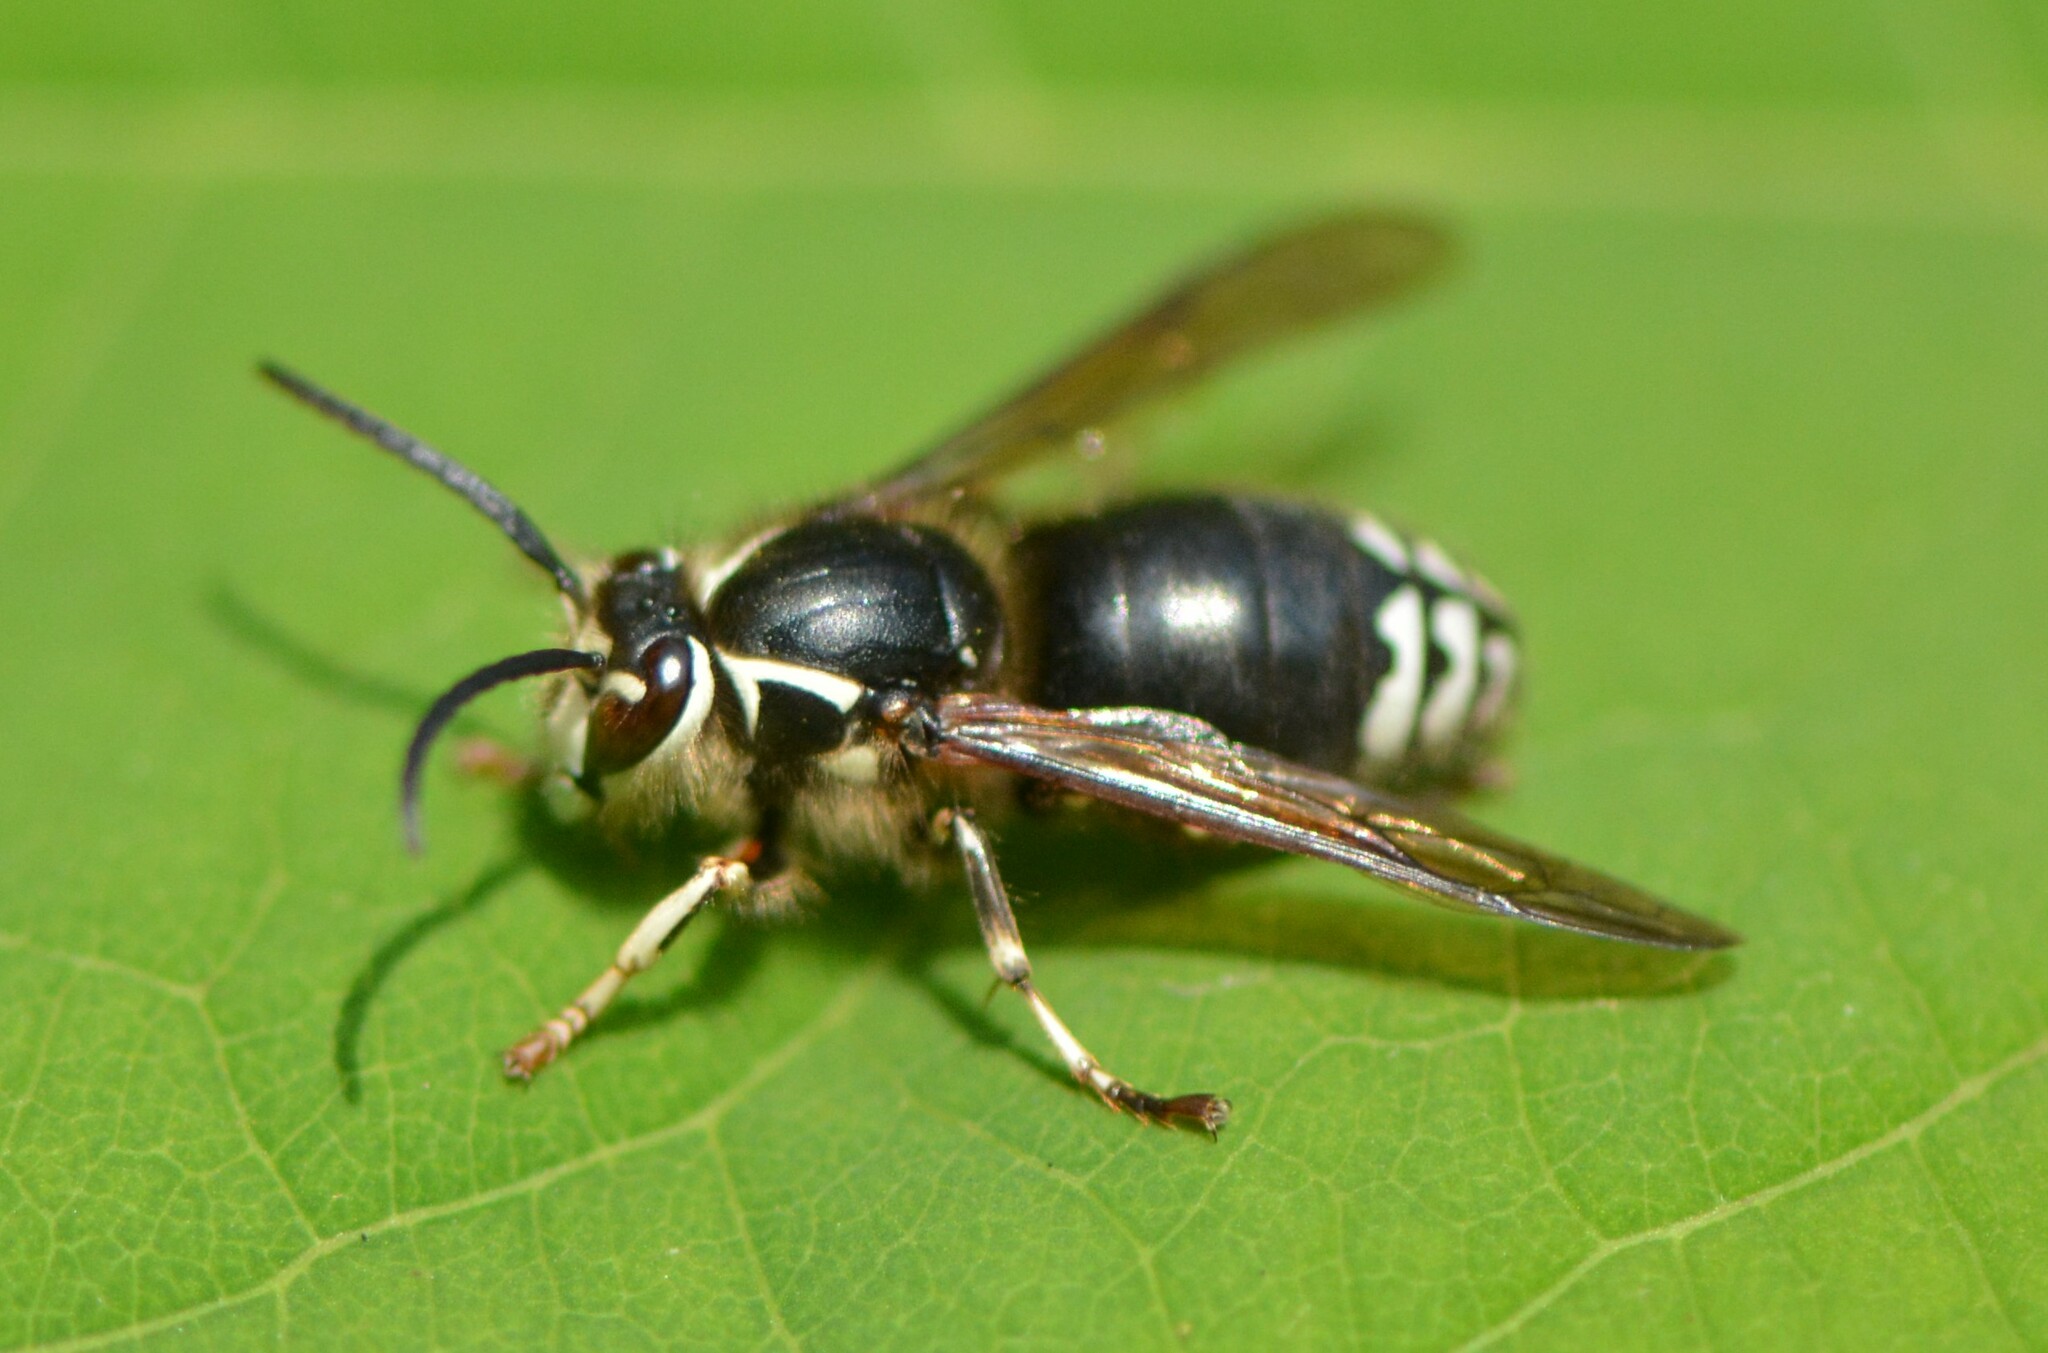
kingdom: Animalia
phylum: Arthropoda
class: Insecta
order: Hymenoptera
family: Vespidae
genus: Dolichovespula
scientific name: Dolichovespula maculata
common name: Bald-faced hornet
